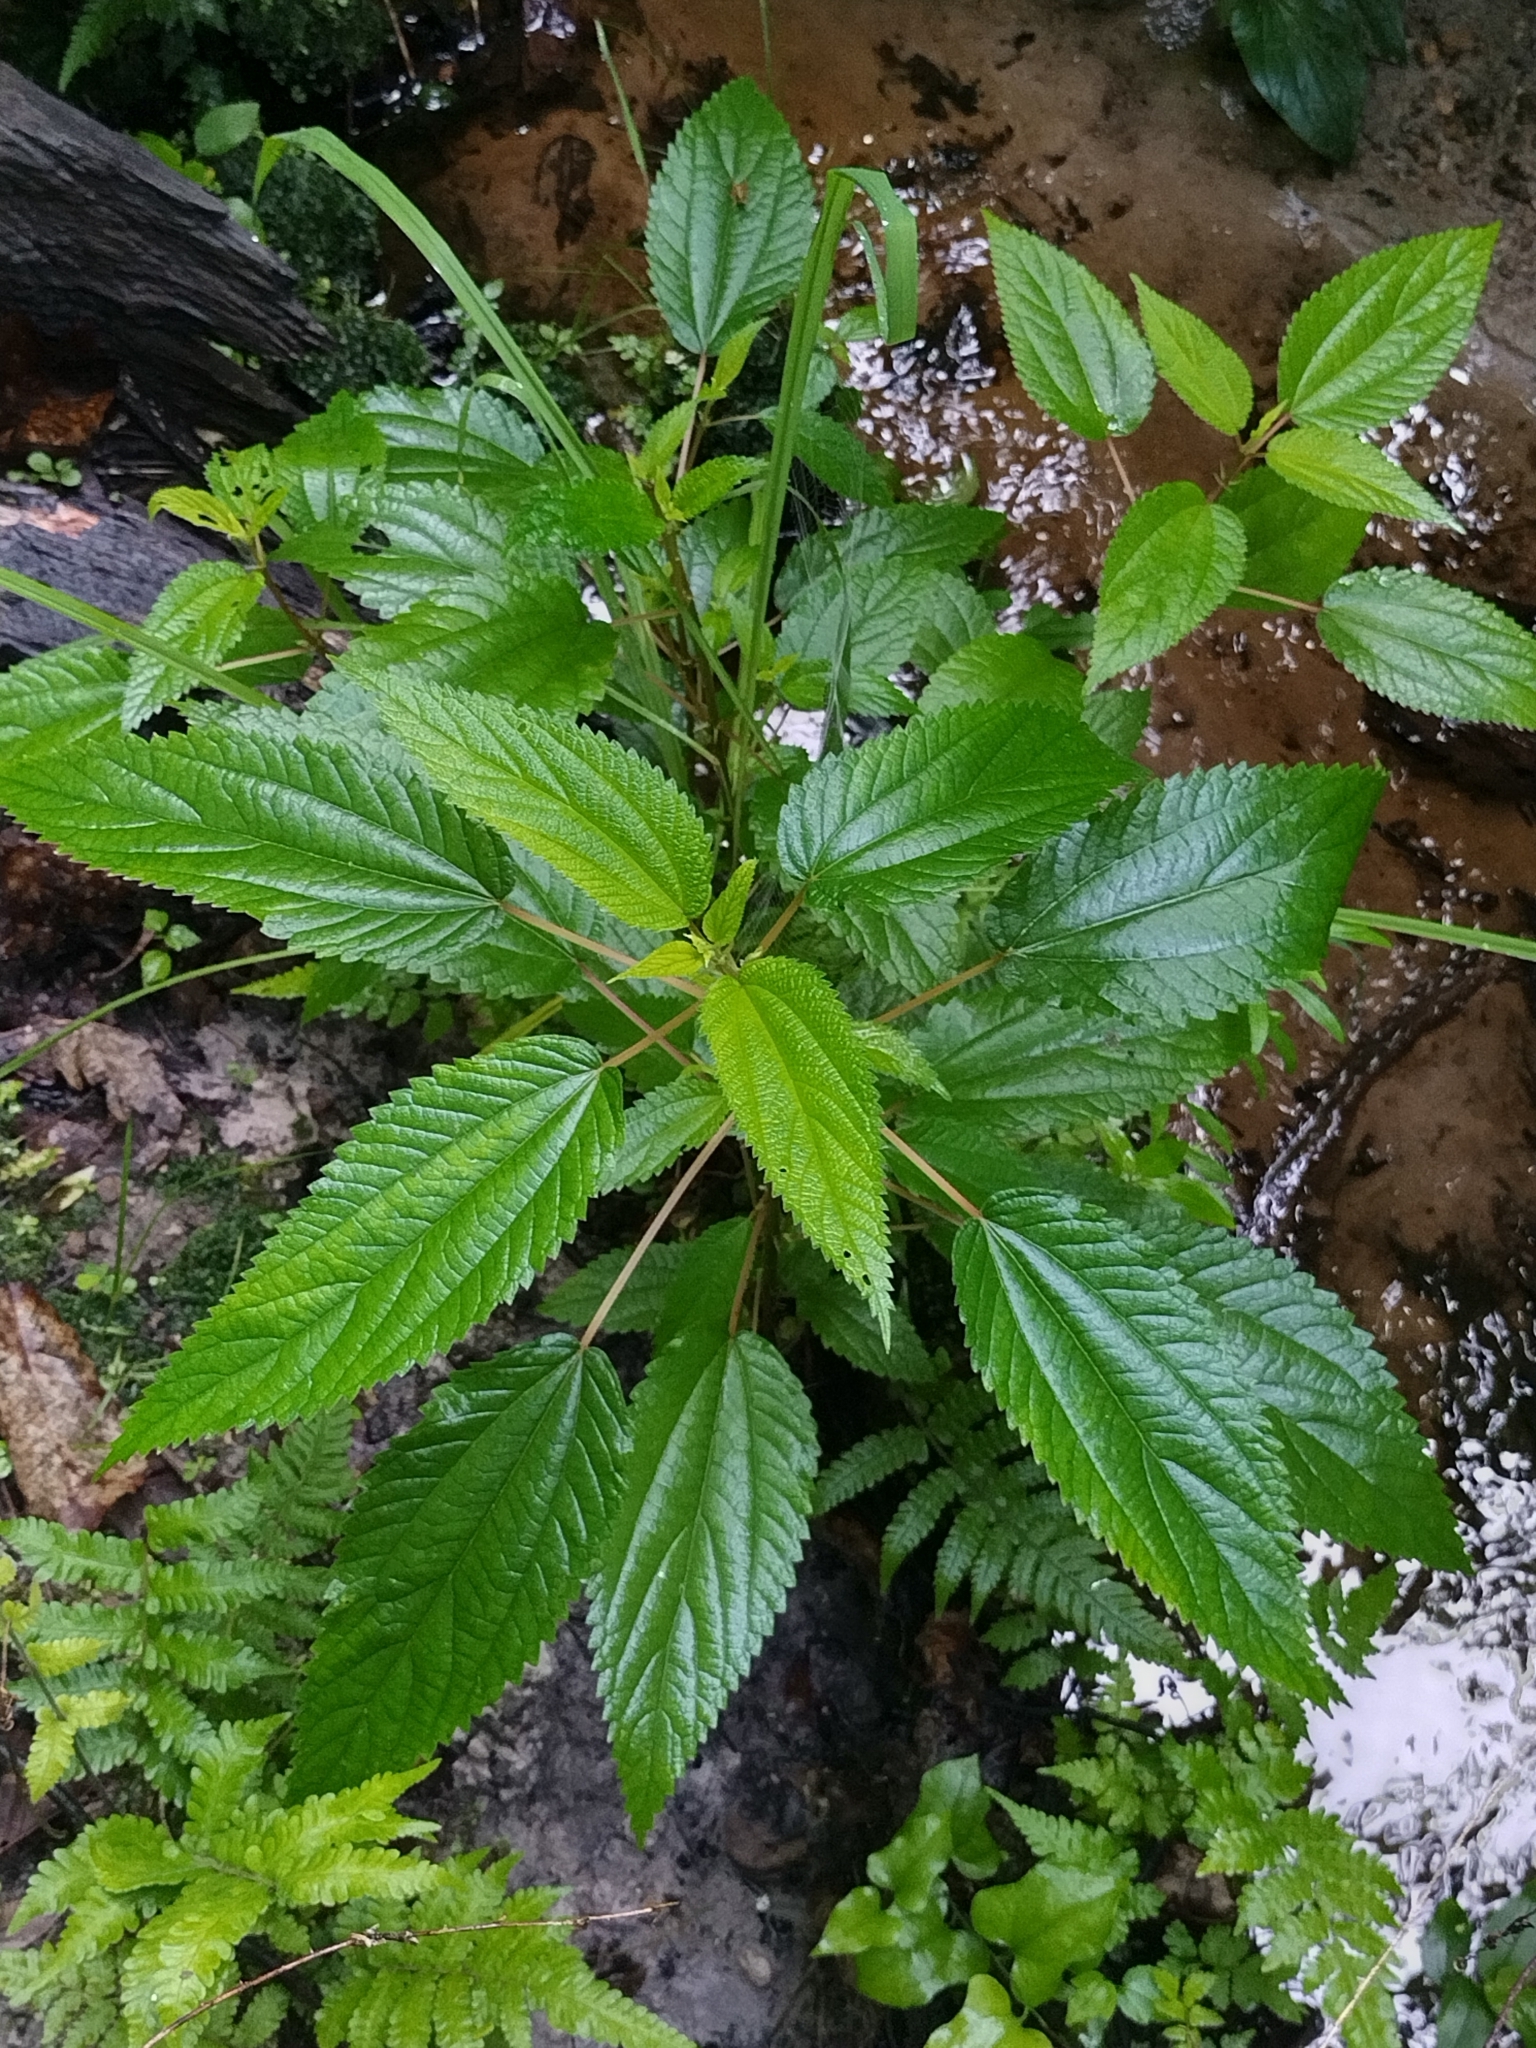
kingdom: Plantae
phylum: Tracheophyta
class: Magnoliopsida
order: Rosales
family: Urticaceae
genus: Boehmeria
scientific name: Boehmeria cylindrica
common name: Bog-hemp
